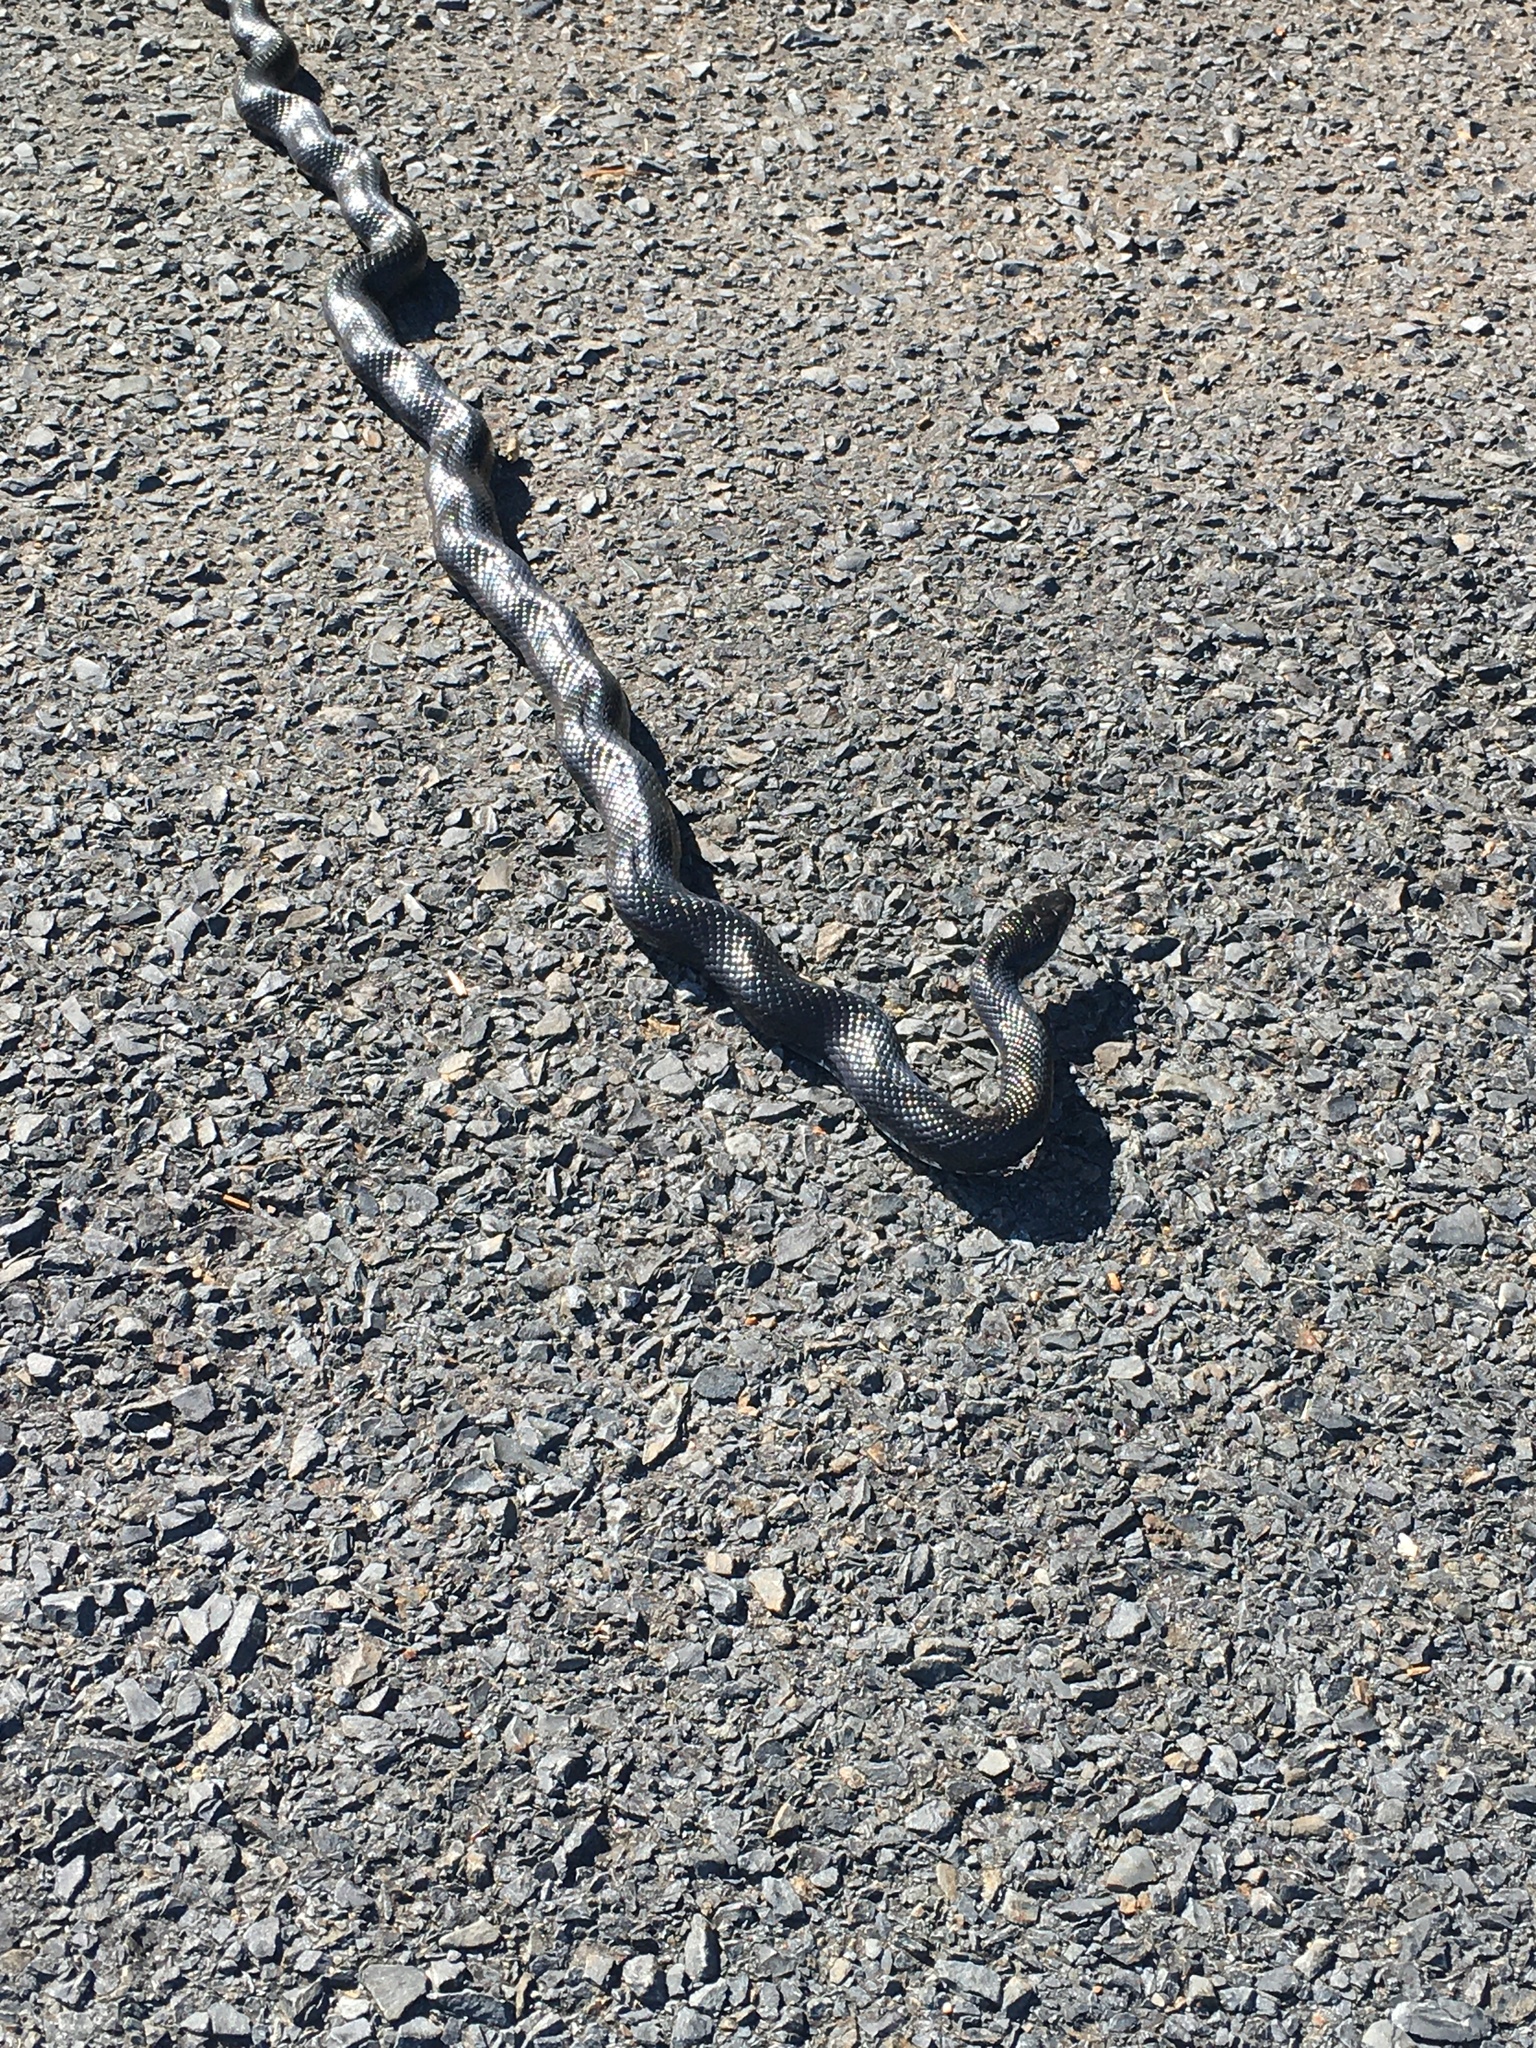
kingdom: Animalia
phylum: Chordata
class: Squamata
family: Colubridae
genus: Pantherophis
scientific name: Pantherophis alleghaniensis
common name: Eastern rat snake
